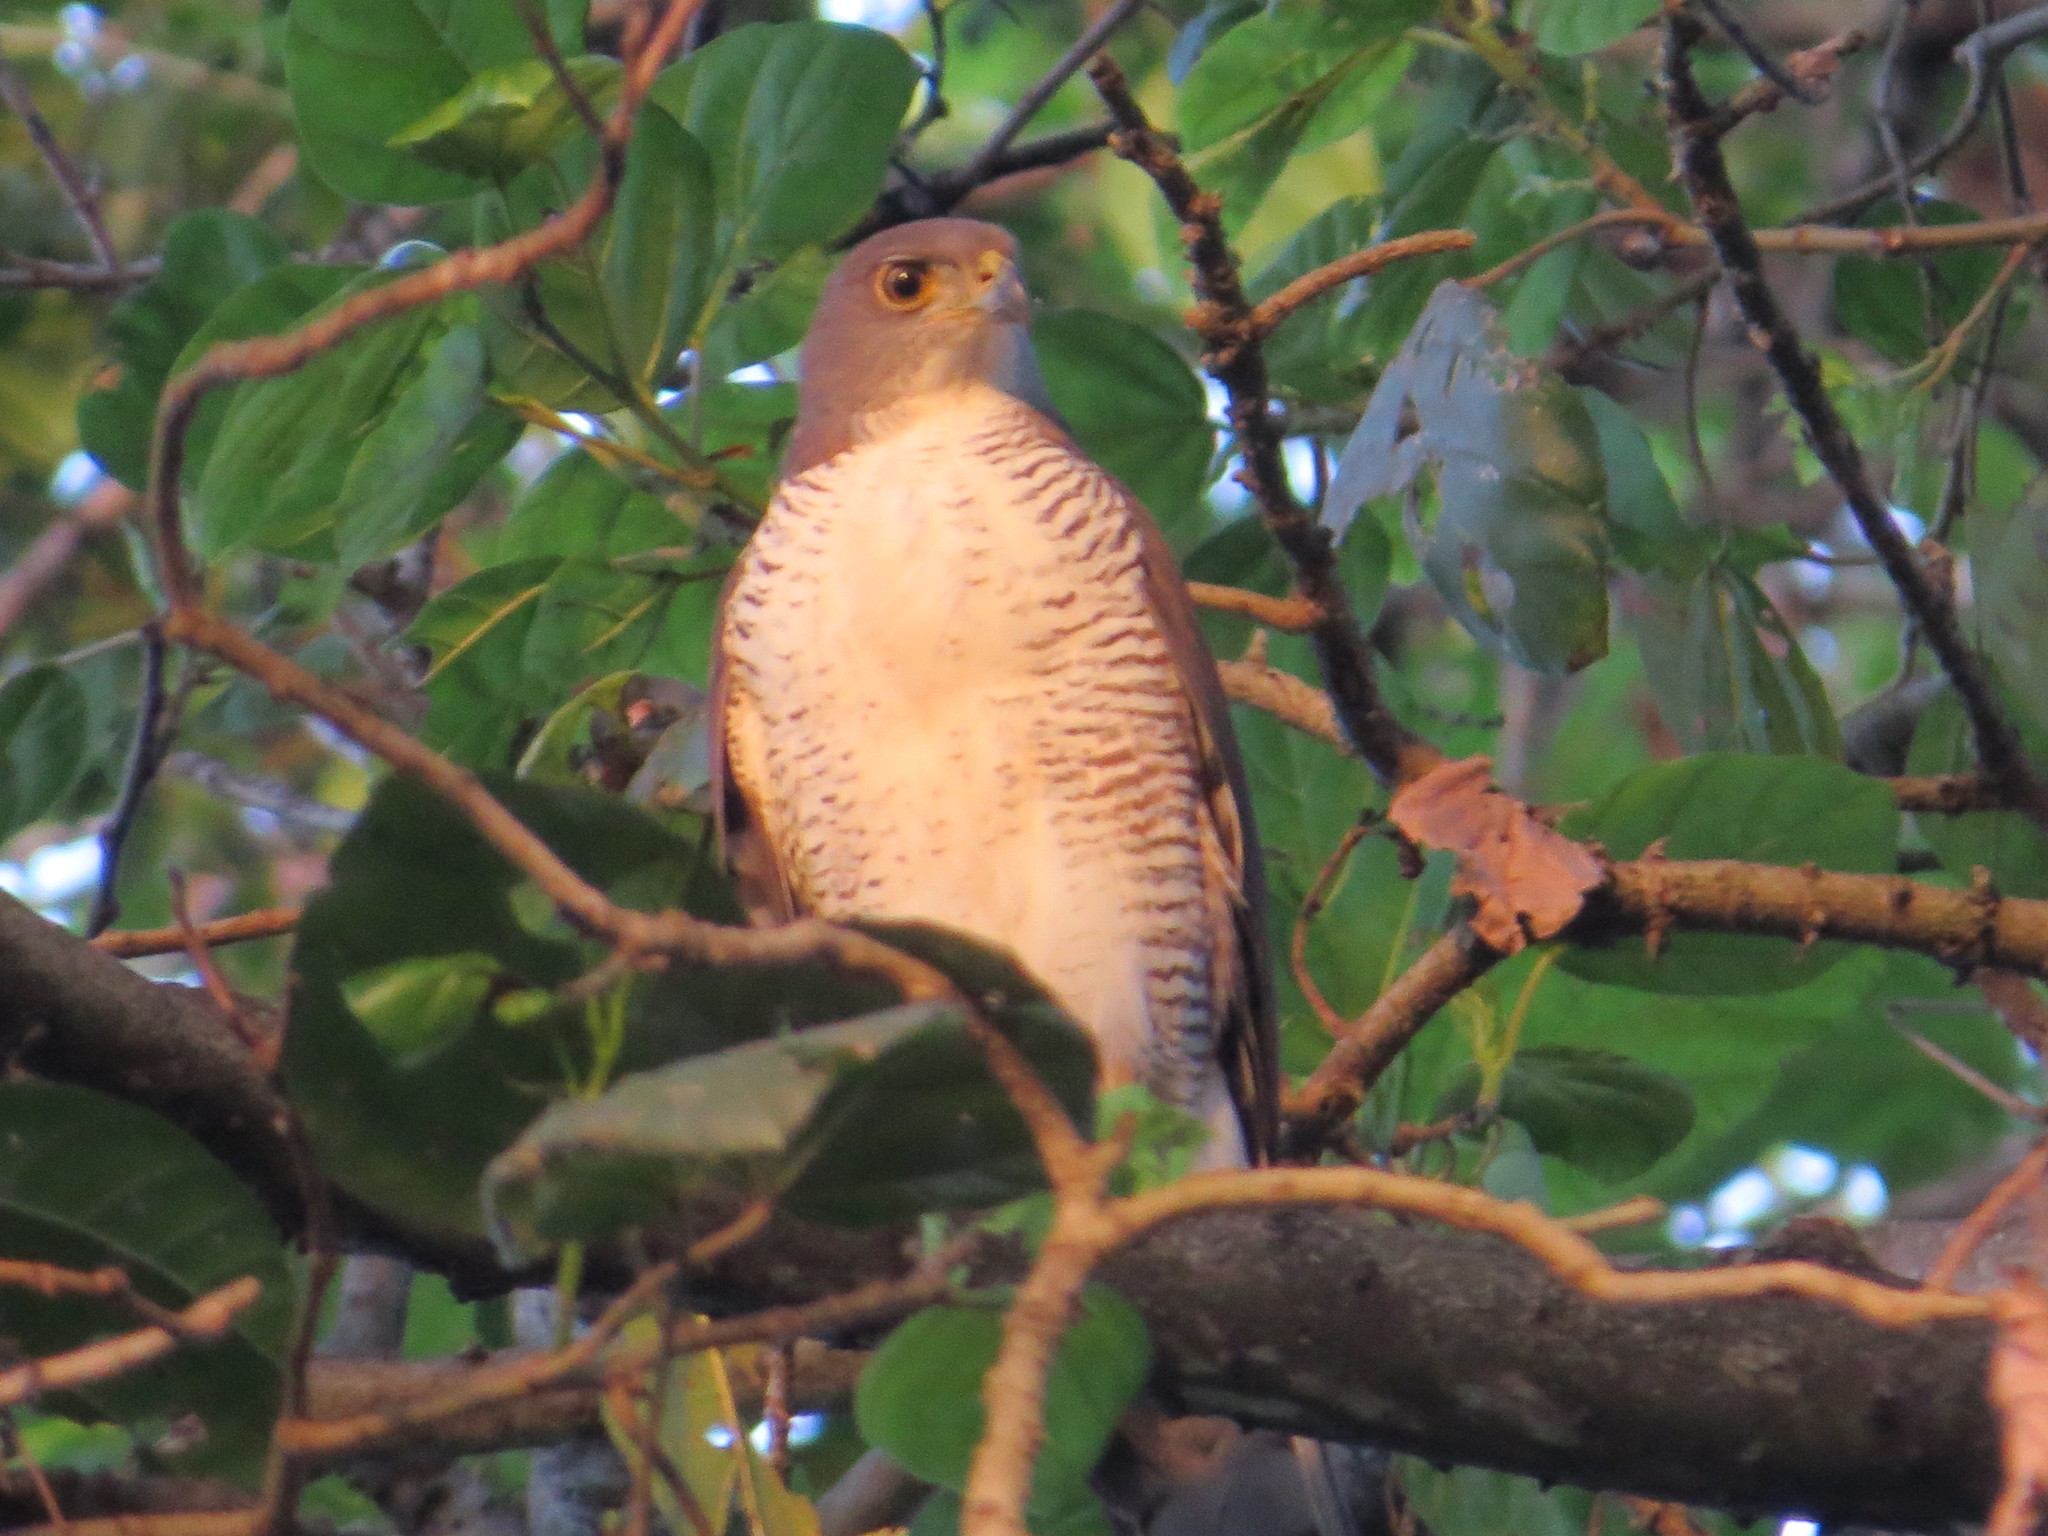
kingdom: Animalia
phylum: Chordata
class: Aves
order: Accipitriformes
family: Accipitridae
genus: Accipiter
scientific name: Accipiter tachiro
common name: African goshawk
